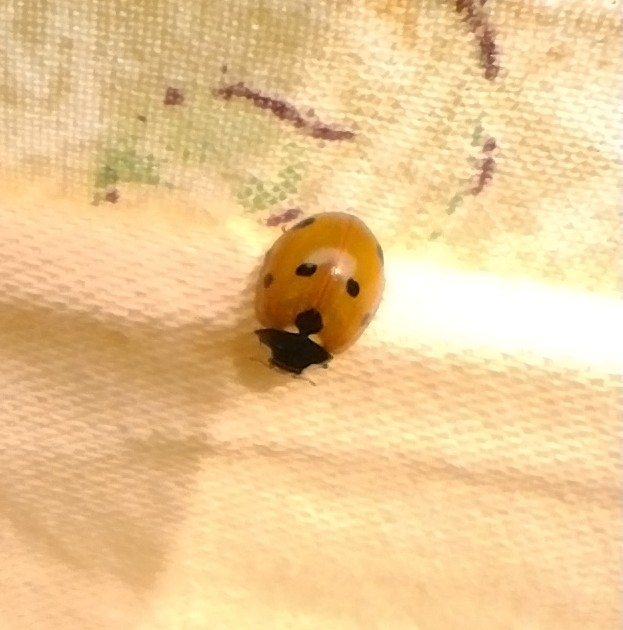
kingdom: Animalia
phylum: Arthropoda
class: Insecta
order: Coleoptera
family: Coccinellidae
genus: Coccinella
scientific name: Coccinella septempunctata
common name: Sevenspotted lady beetle
